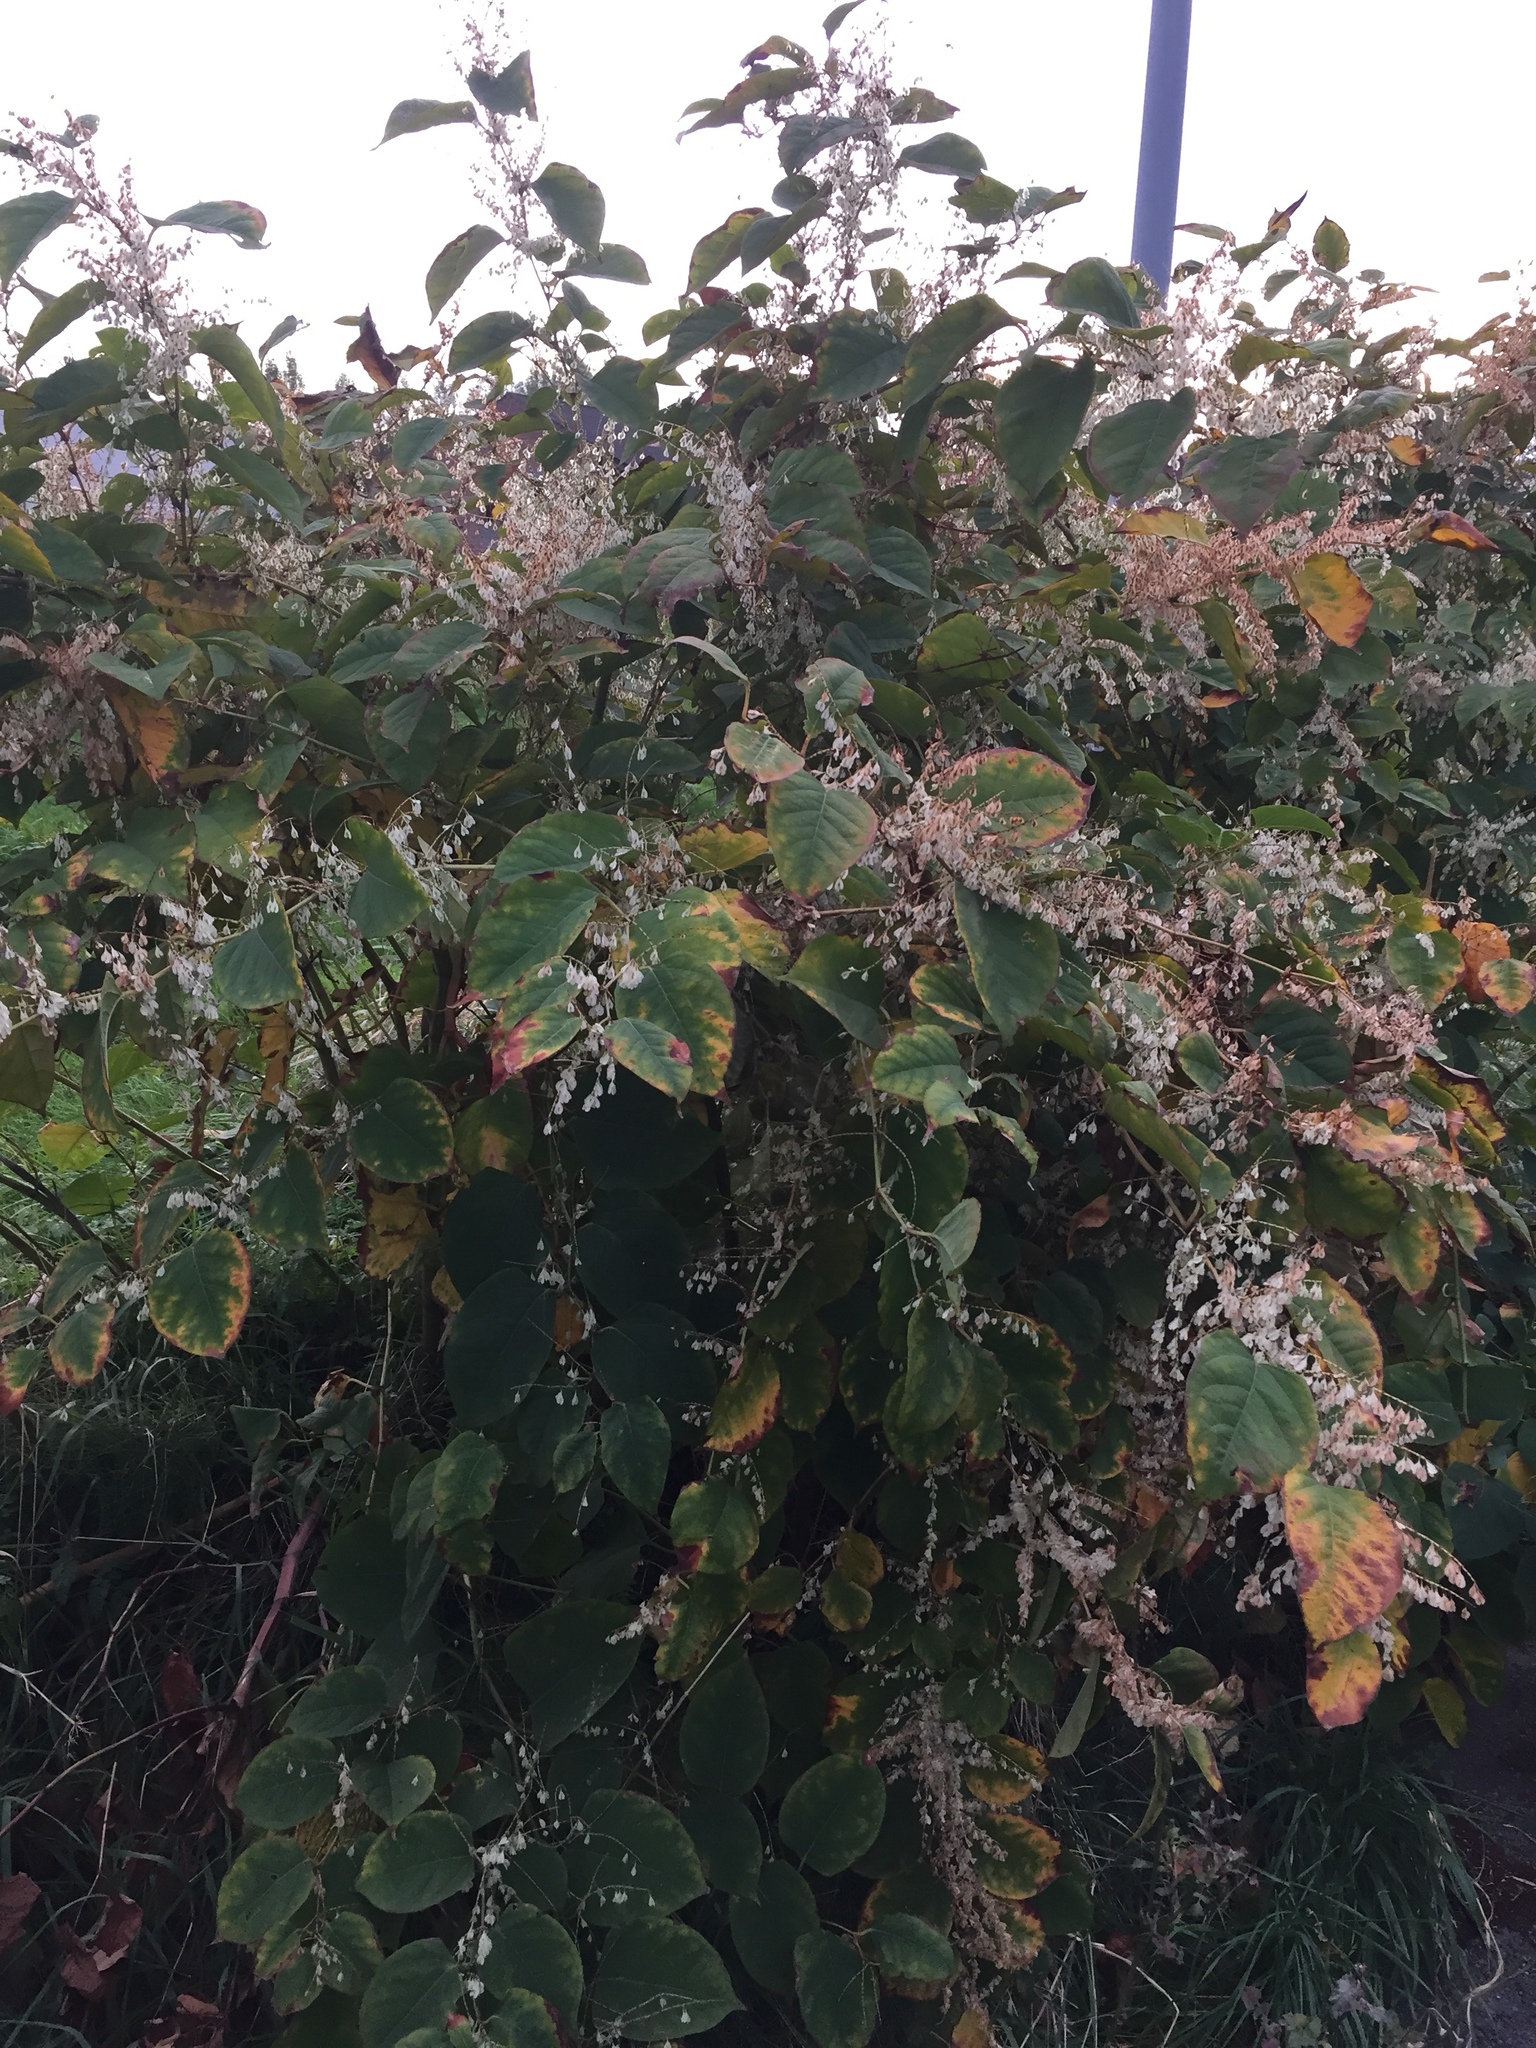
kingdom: Plantae
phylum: Tracheophyta
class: Magnoliopsida
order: Caryophyllales
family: Polygonaceae
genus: Reynoutria
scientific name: Reynoutria japonica
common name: Japanese knotweed
